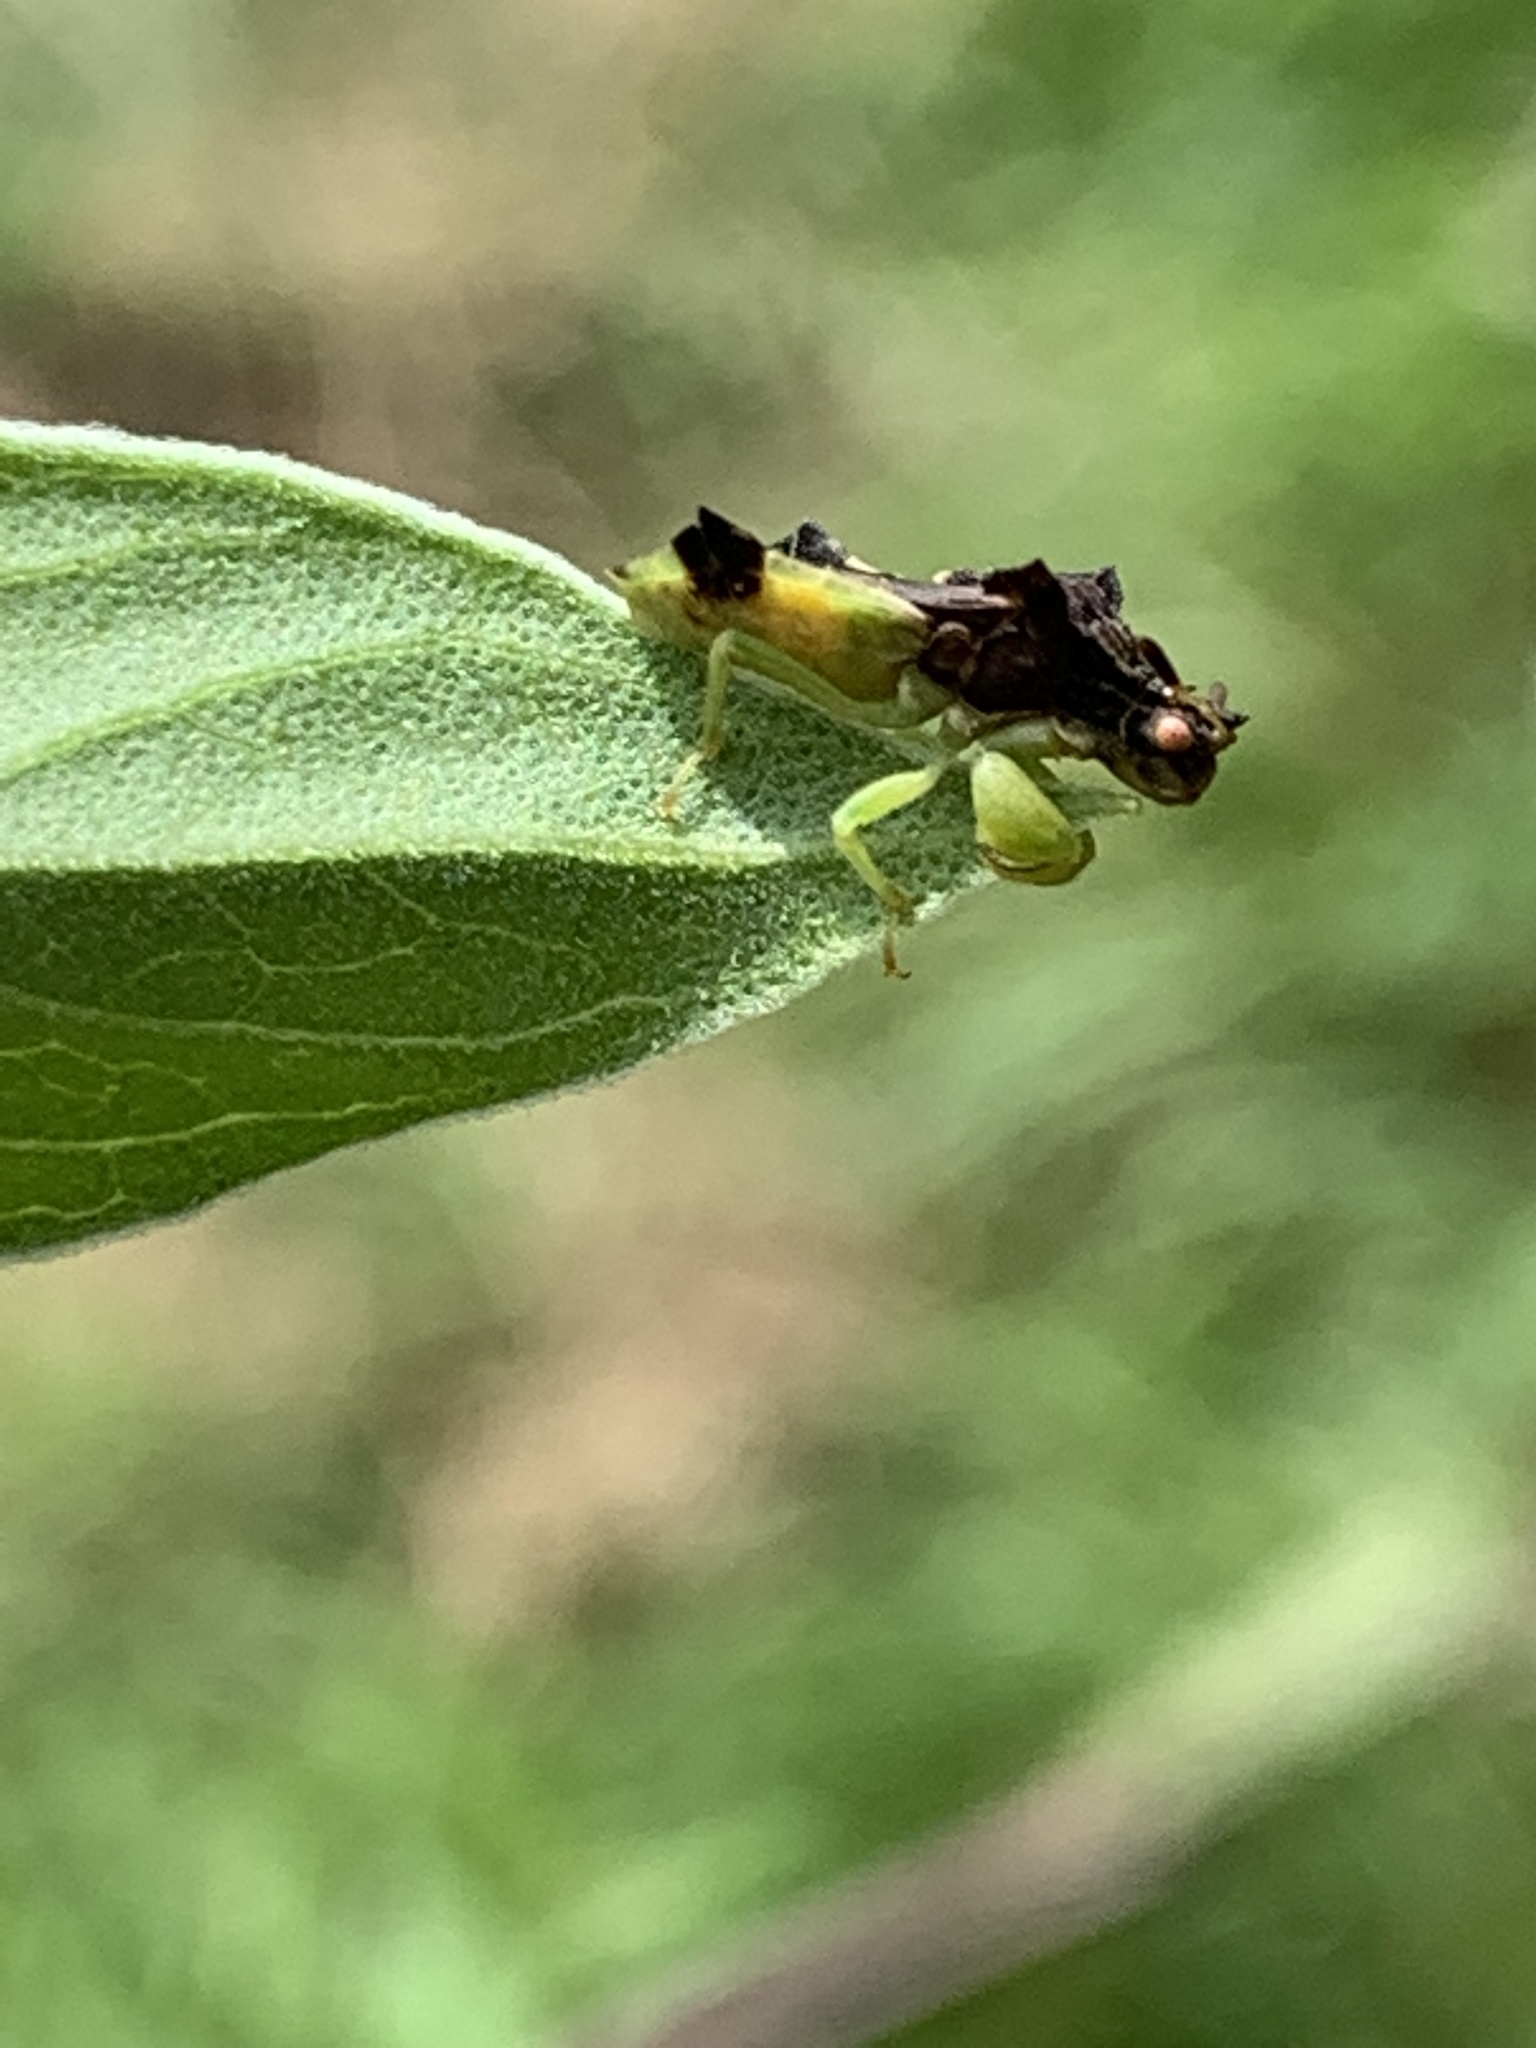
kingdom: Animalia
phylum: Arthropoda
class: Insecta
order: Hemiptera
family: Reduviidae
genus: Phymata
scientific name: Phymata pennsylvanica
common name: Pennsylvania ambush bug
